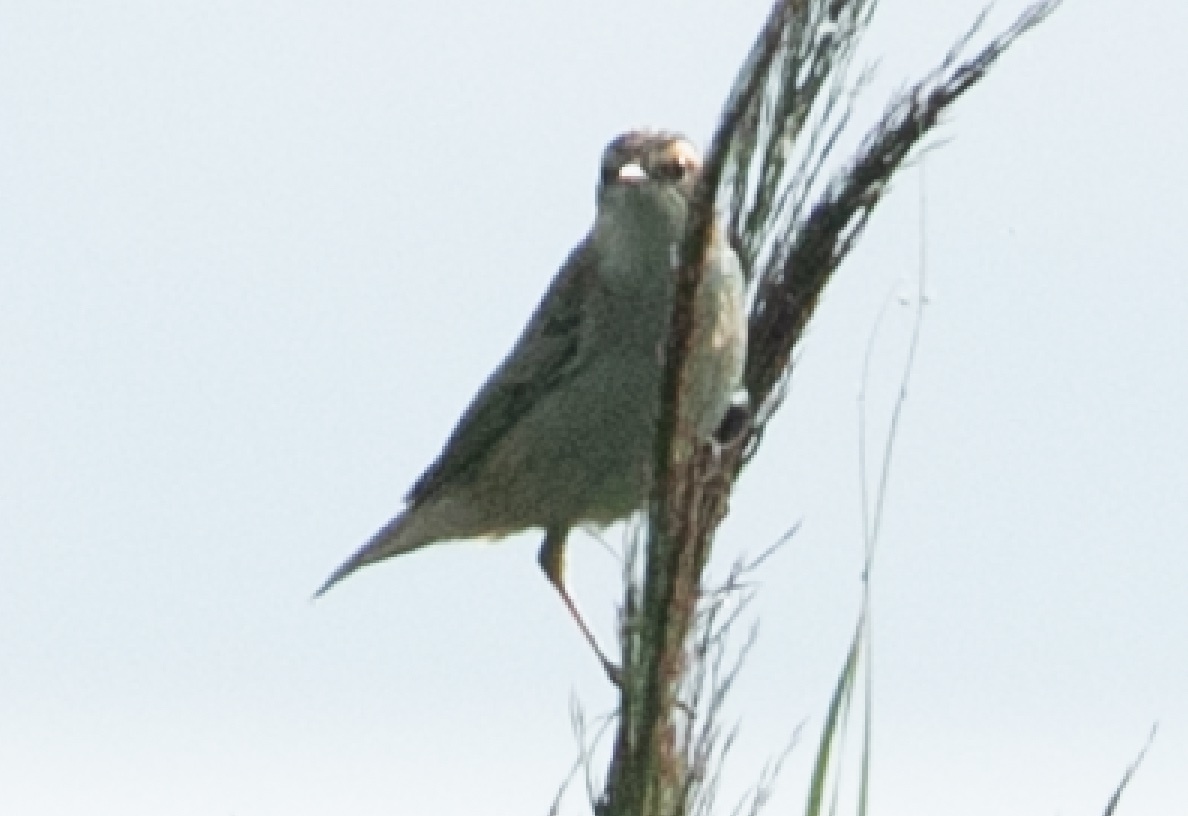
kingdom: Animalia
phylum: Chordata
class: Aves
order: Passeriformes
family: Acrocephalidae
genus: Acrocephalus
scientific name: Acrocephalus schoenobaenus
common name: Sedge warbler
